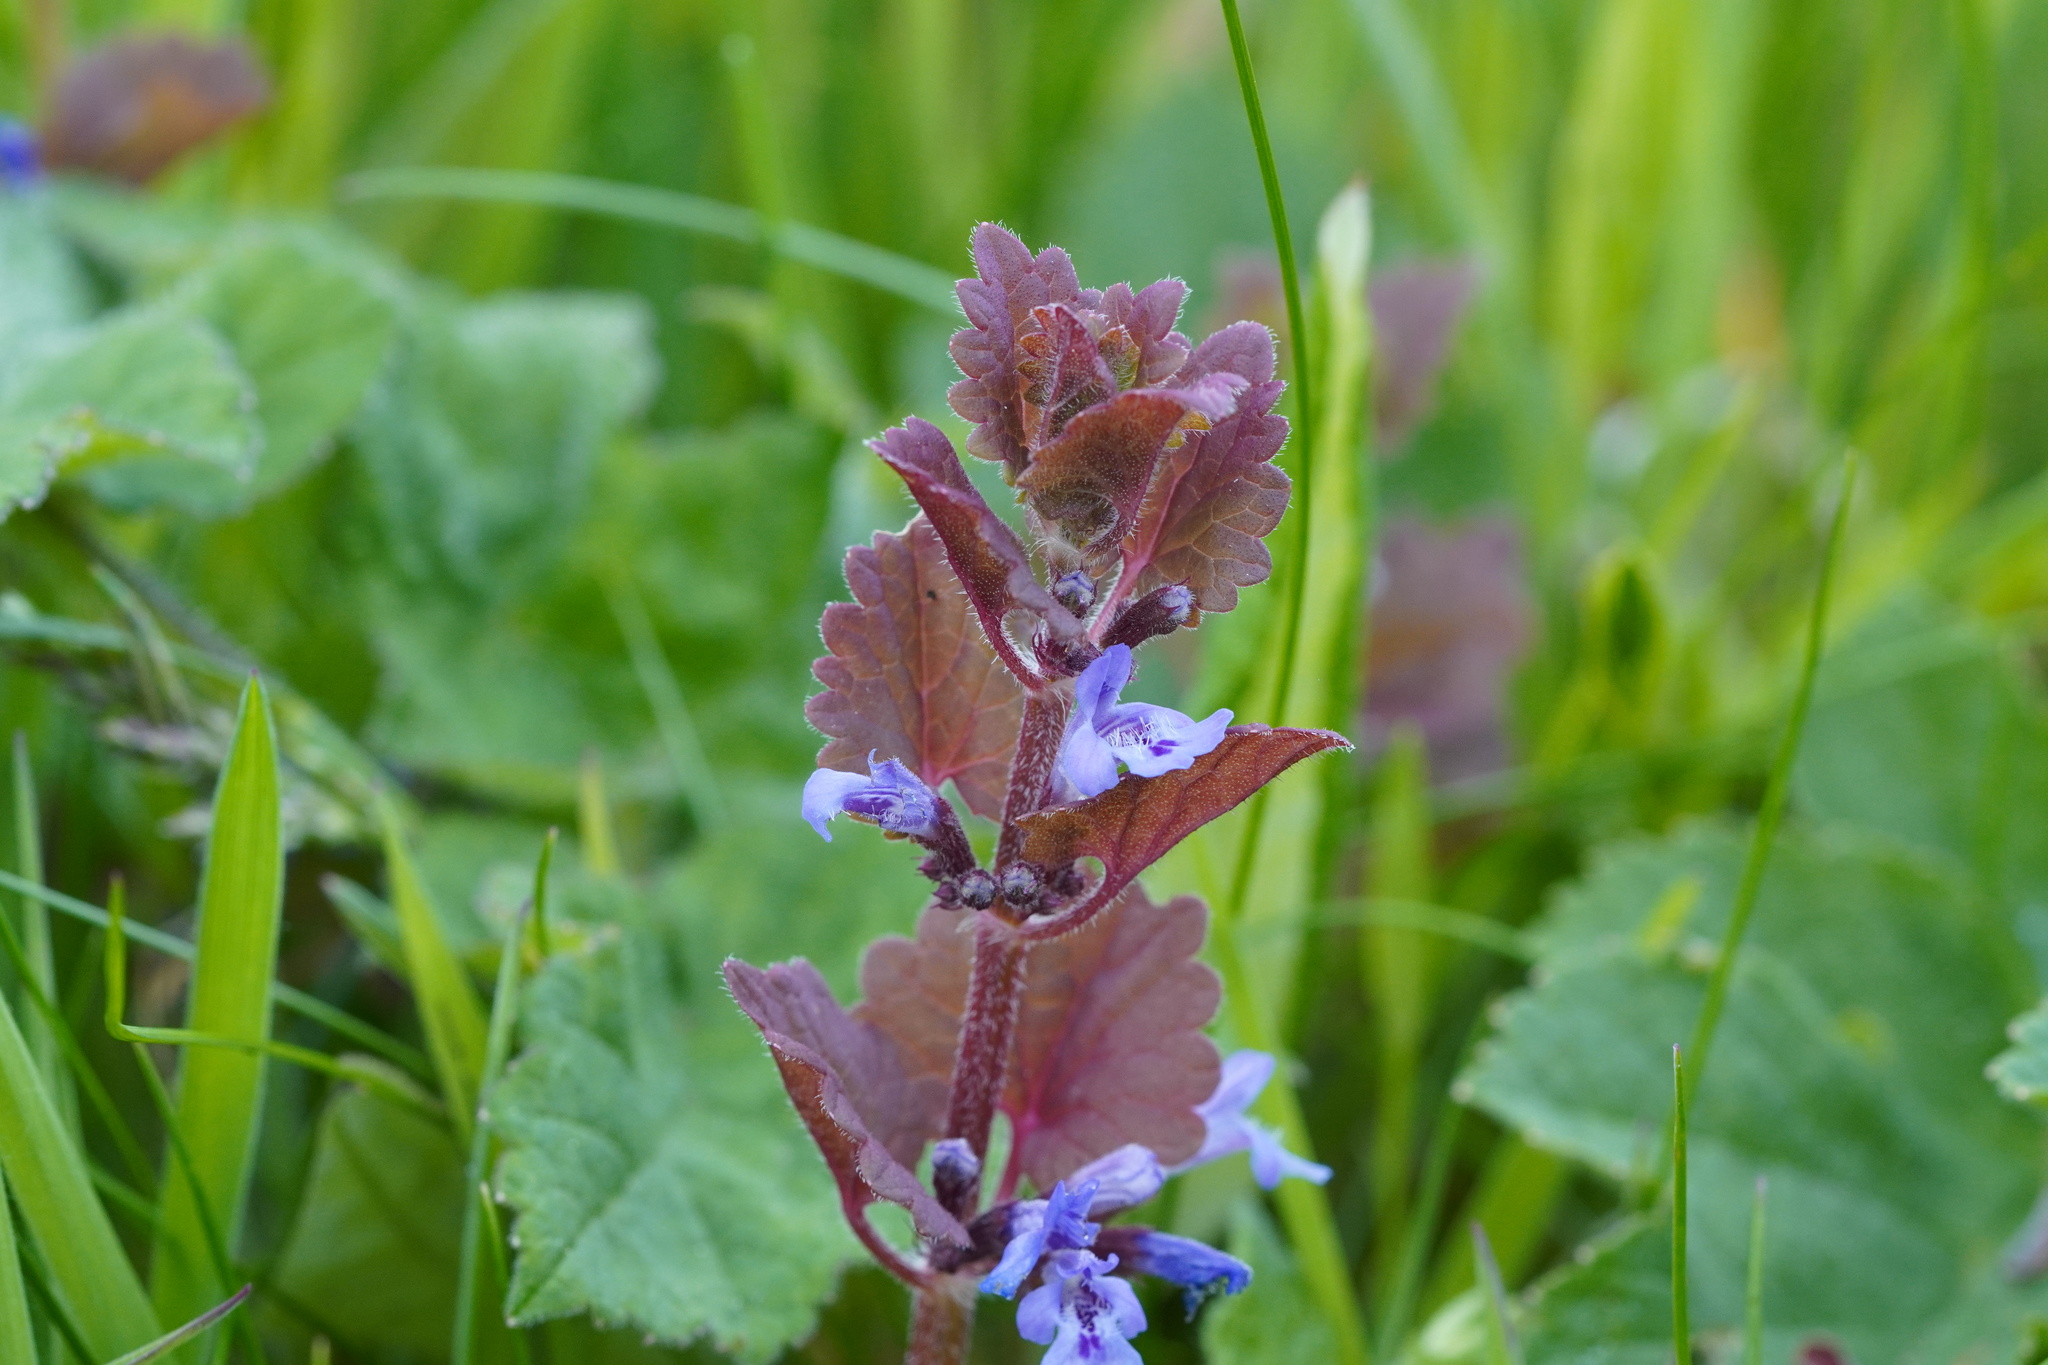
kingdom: Plantae
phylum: Tracheophyta
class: Magnoliopsida
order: Lamiales
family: Lamiaceae
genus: Glechoma
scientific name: Glechoma hederacea
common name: Ground ivy
